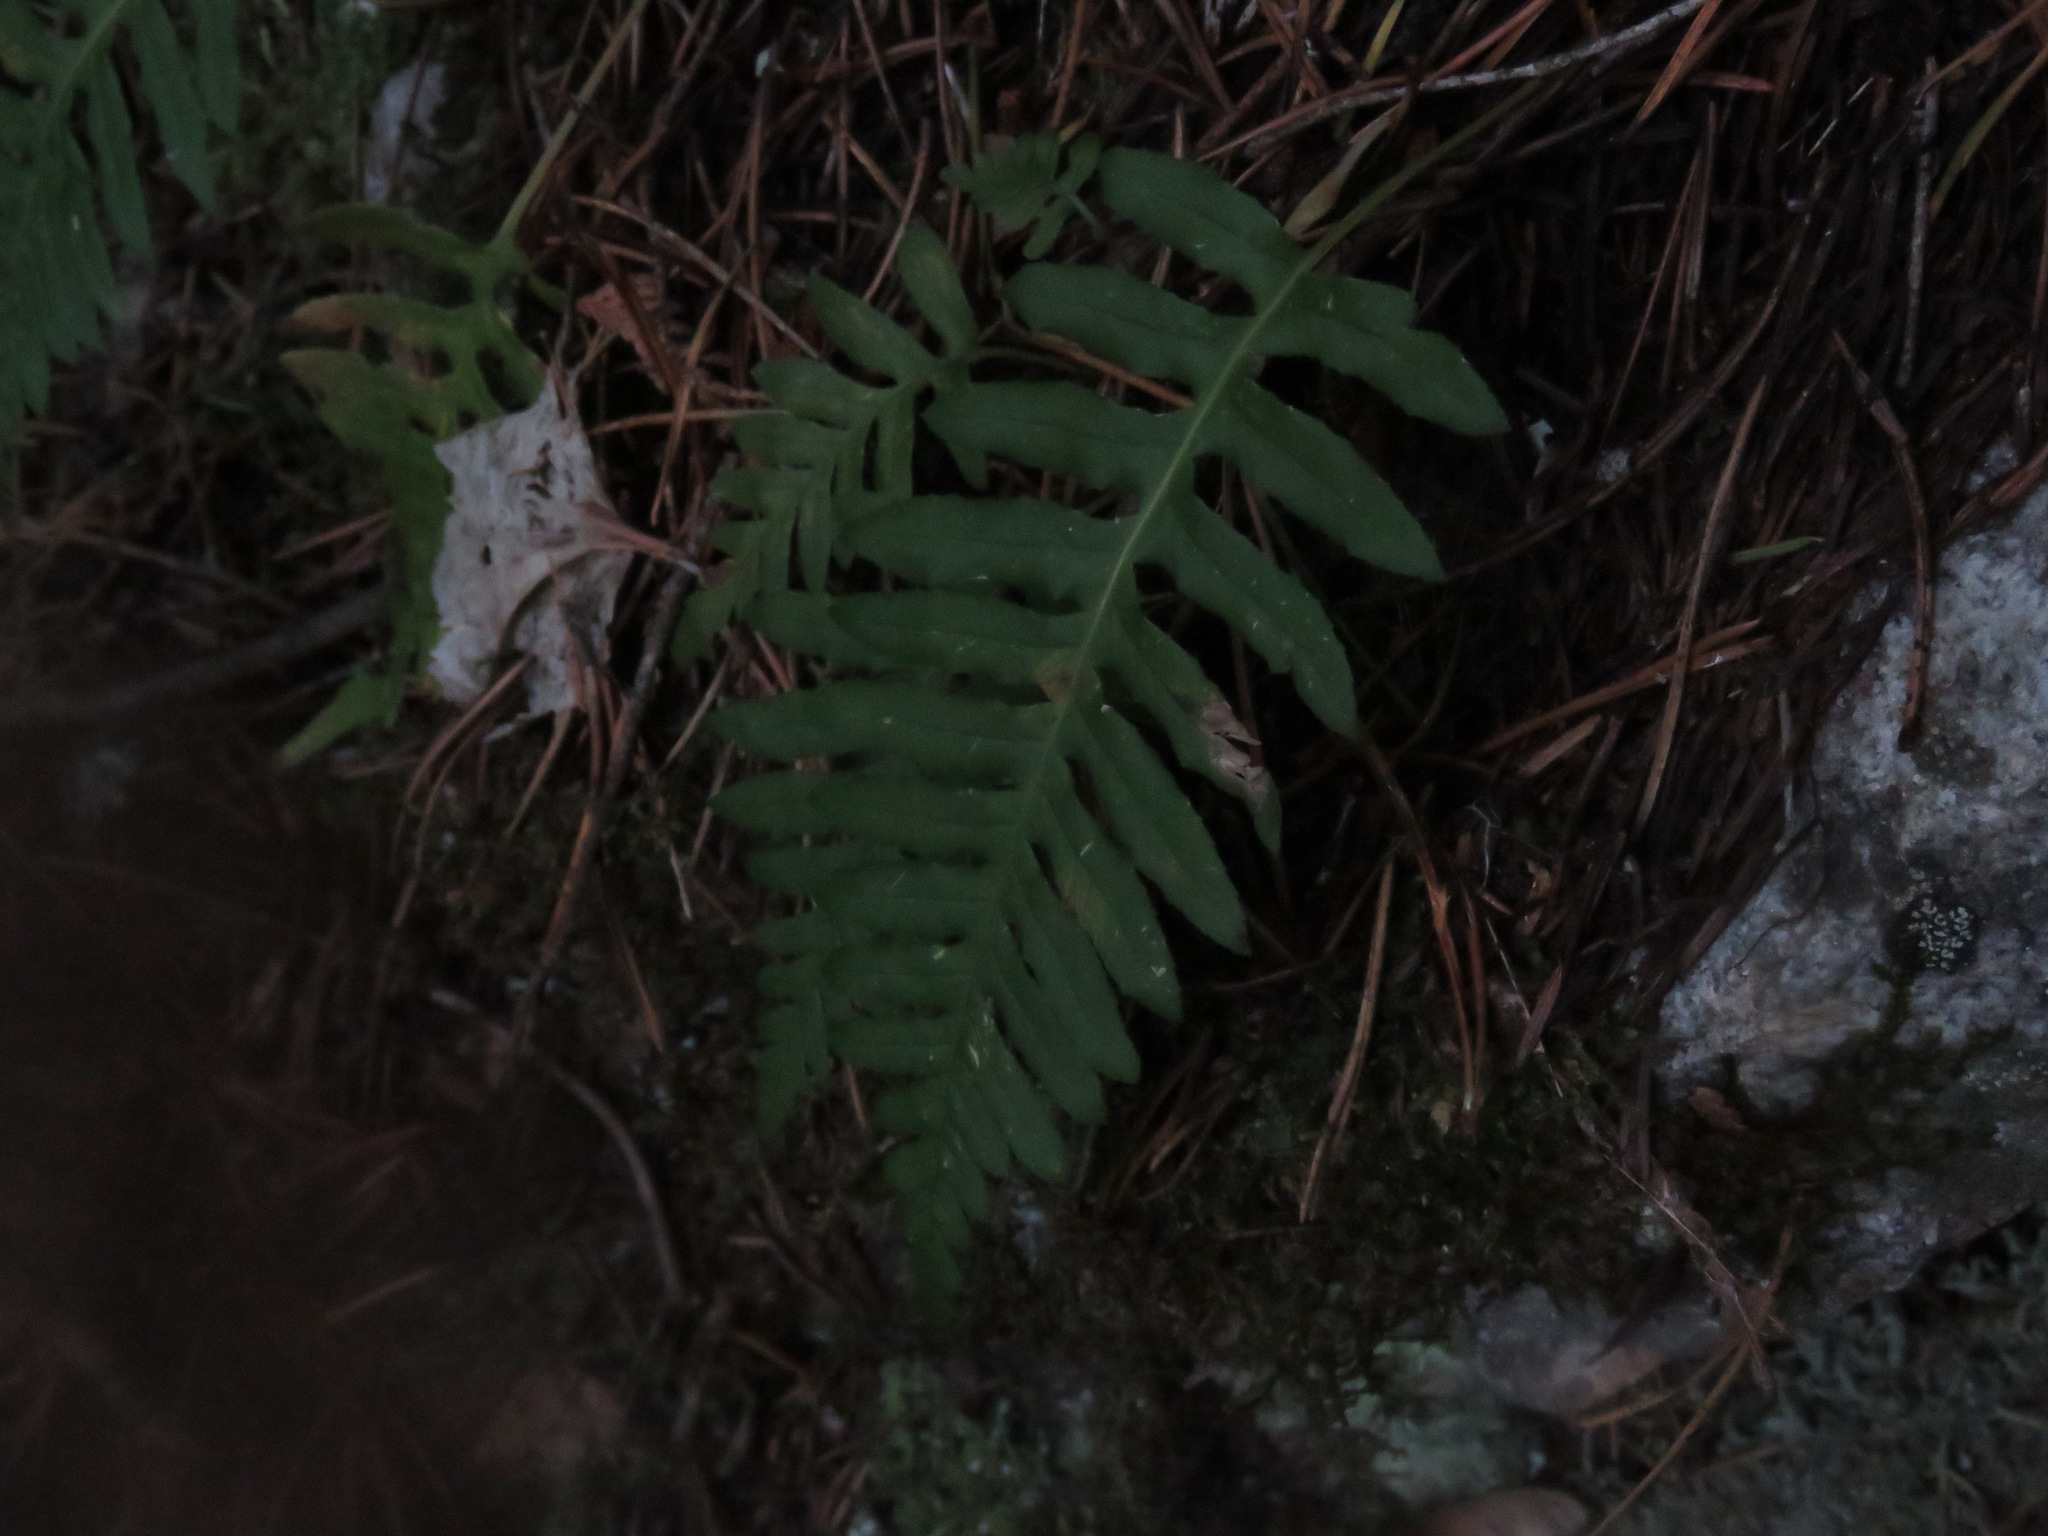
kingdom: Plantae
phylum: Tracheophyta
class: Polypodiopsida
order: Polypodiales
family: Polypodiaceae
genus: Polypodium
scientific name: Polypodium glycyrrhiza
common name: Licorice fern
